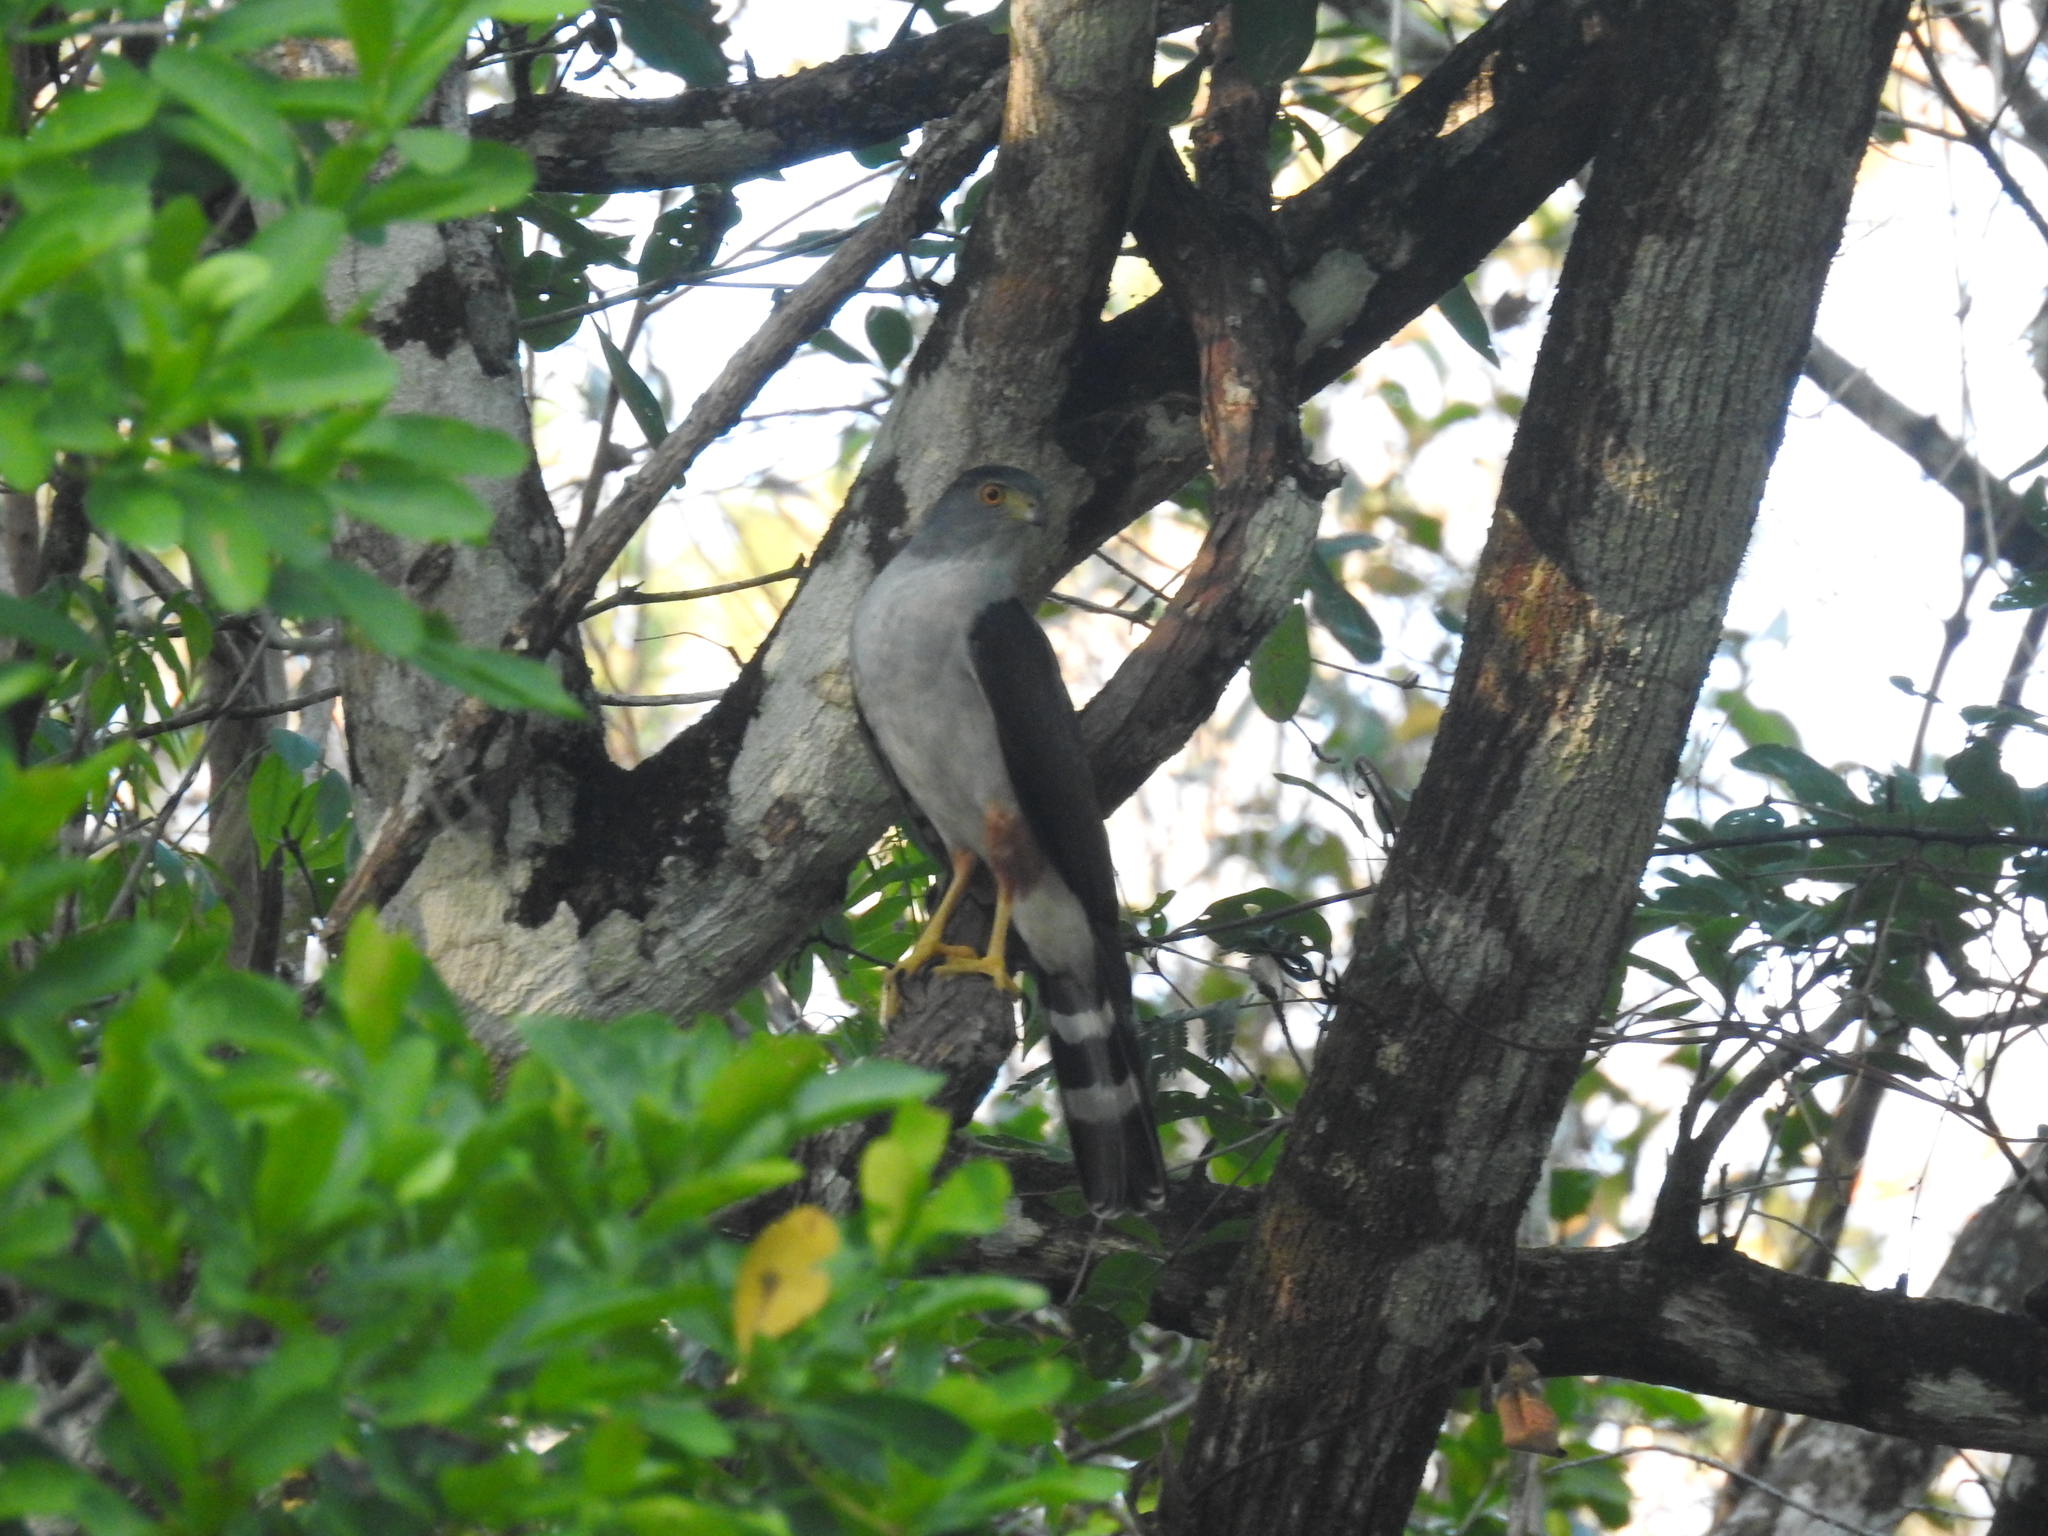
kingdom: Animalia
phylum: Chordata
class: Aves
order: Accipitriformes
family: Accipitridae
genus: Accipiter
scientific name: Accipiter bicolor
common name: Bicolored hawk
